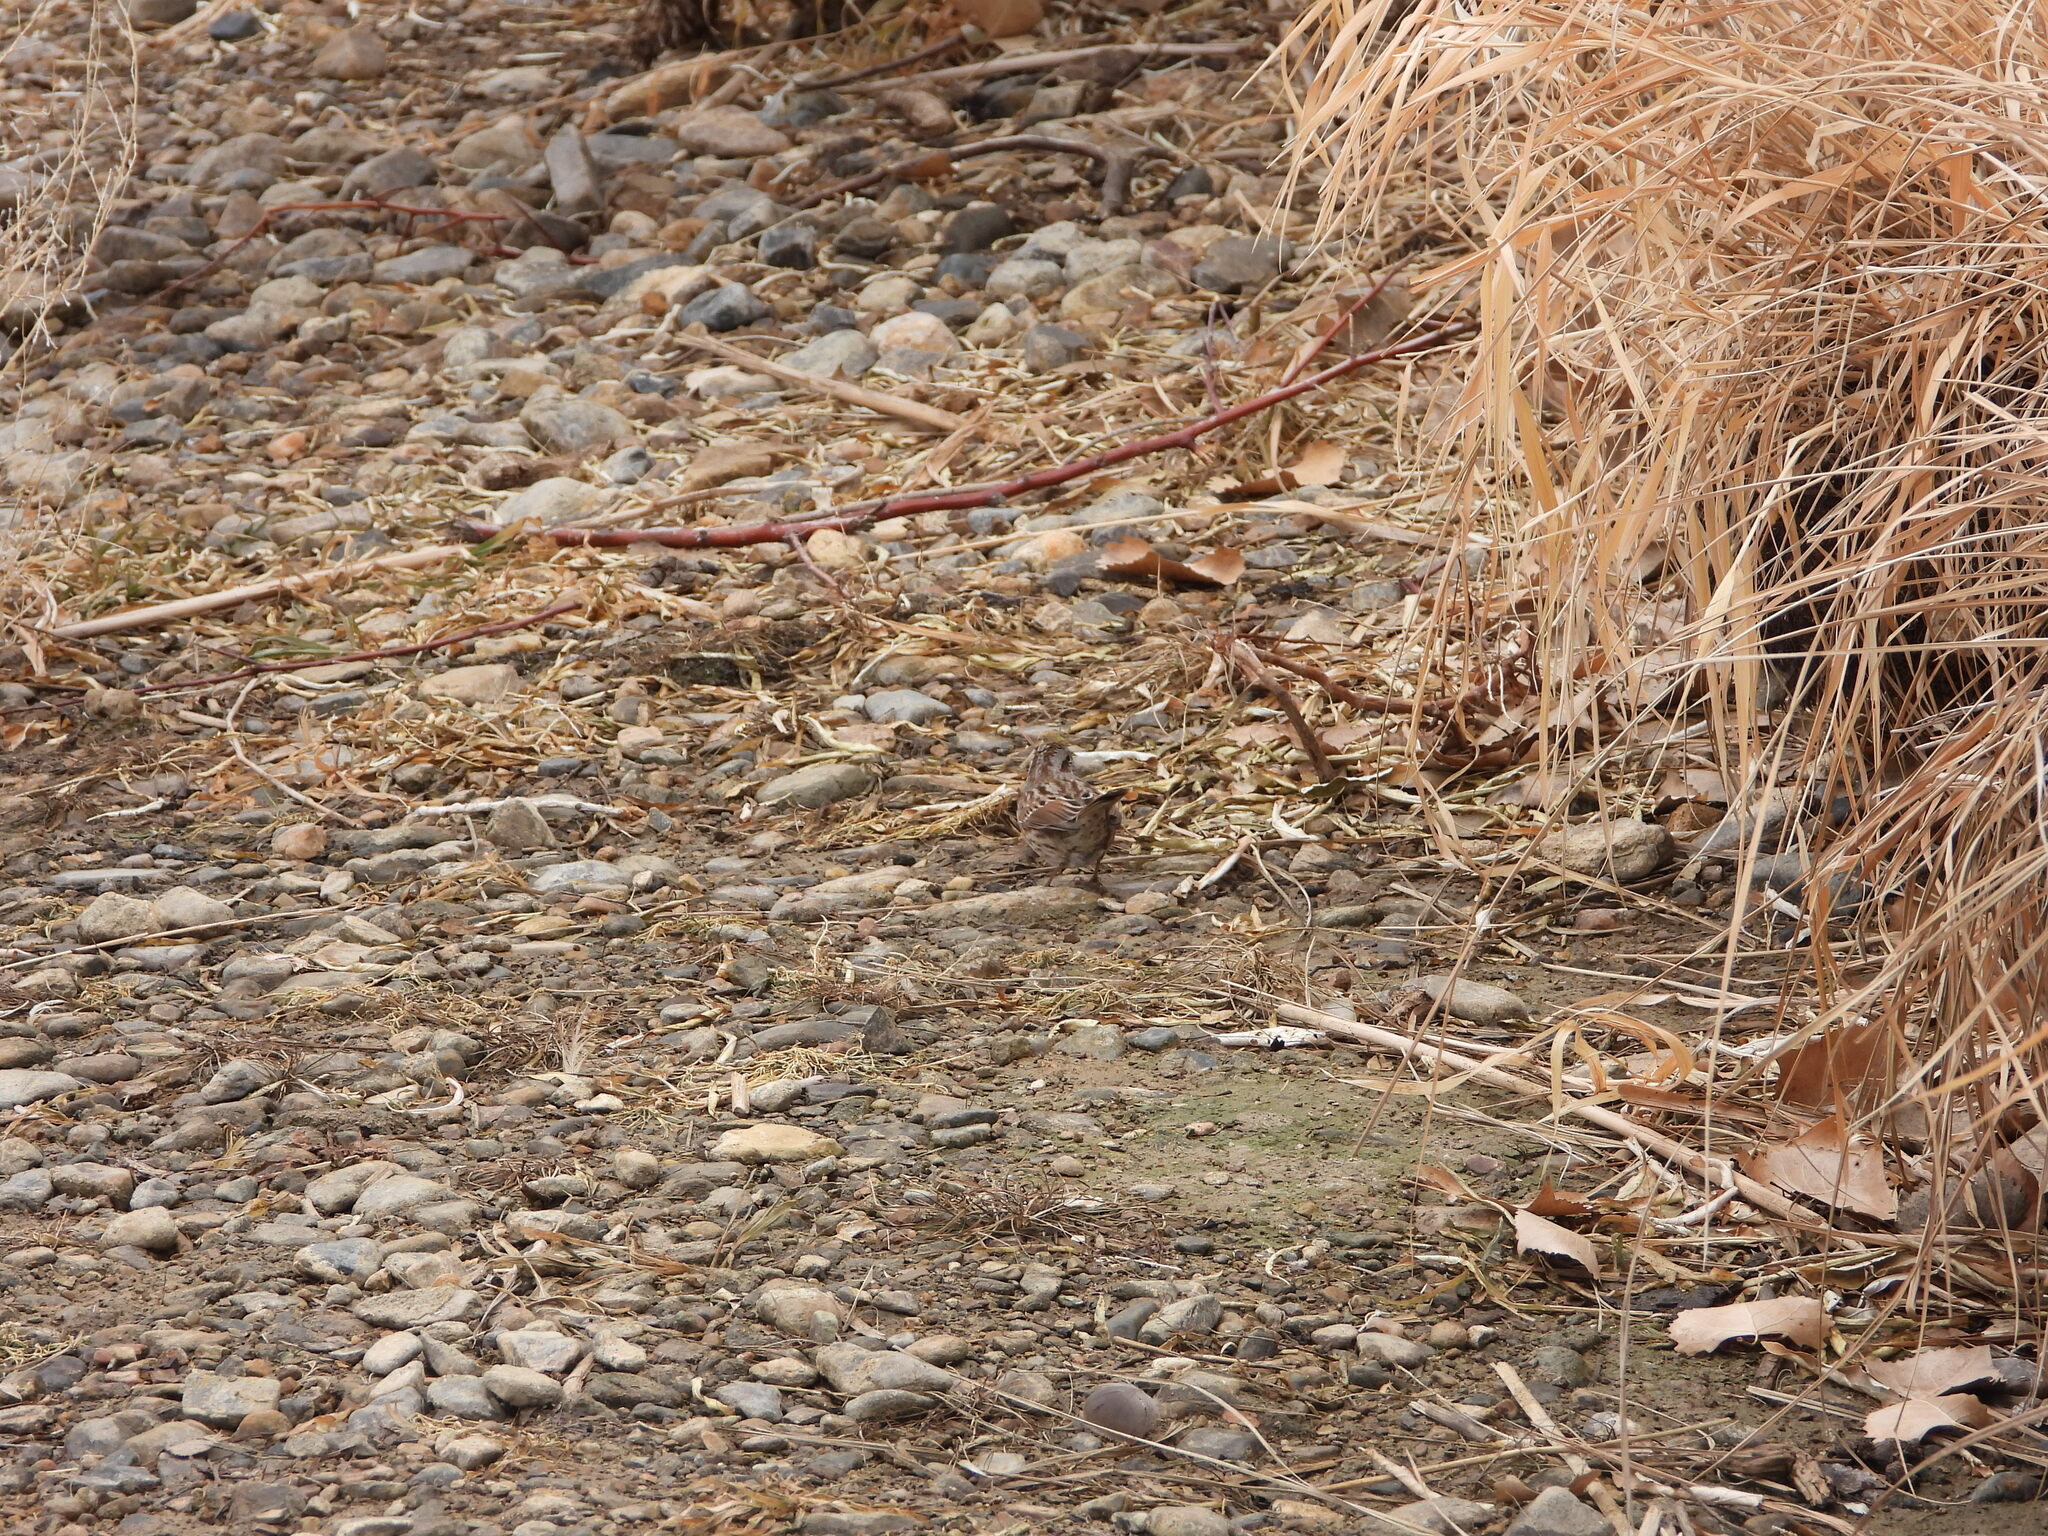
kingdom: Animalia
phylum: Chordata
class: Aves
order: Passeriformes
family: Passerellidae
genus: Melospiza
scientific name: Melospiza melodia
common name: Song sparrow
